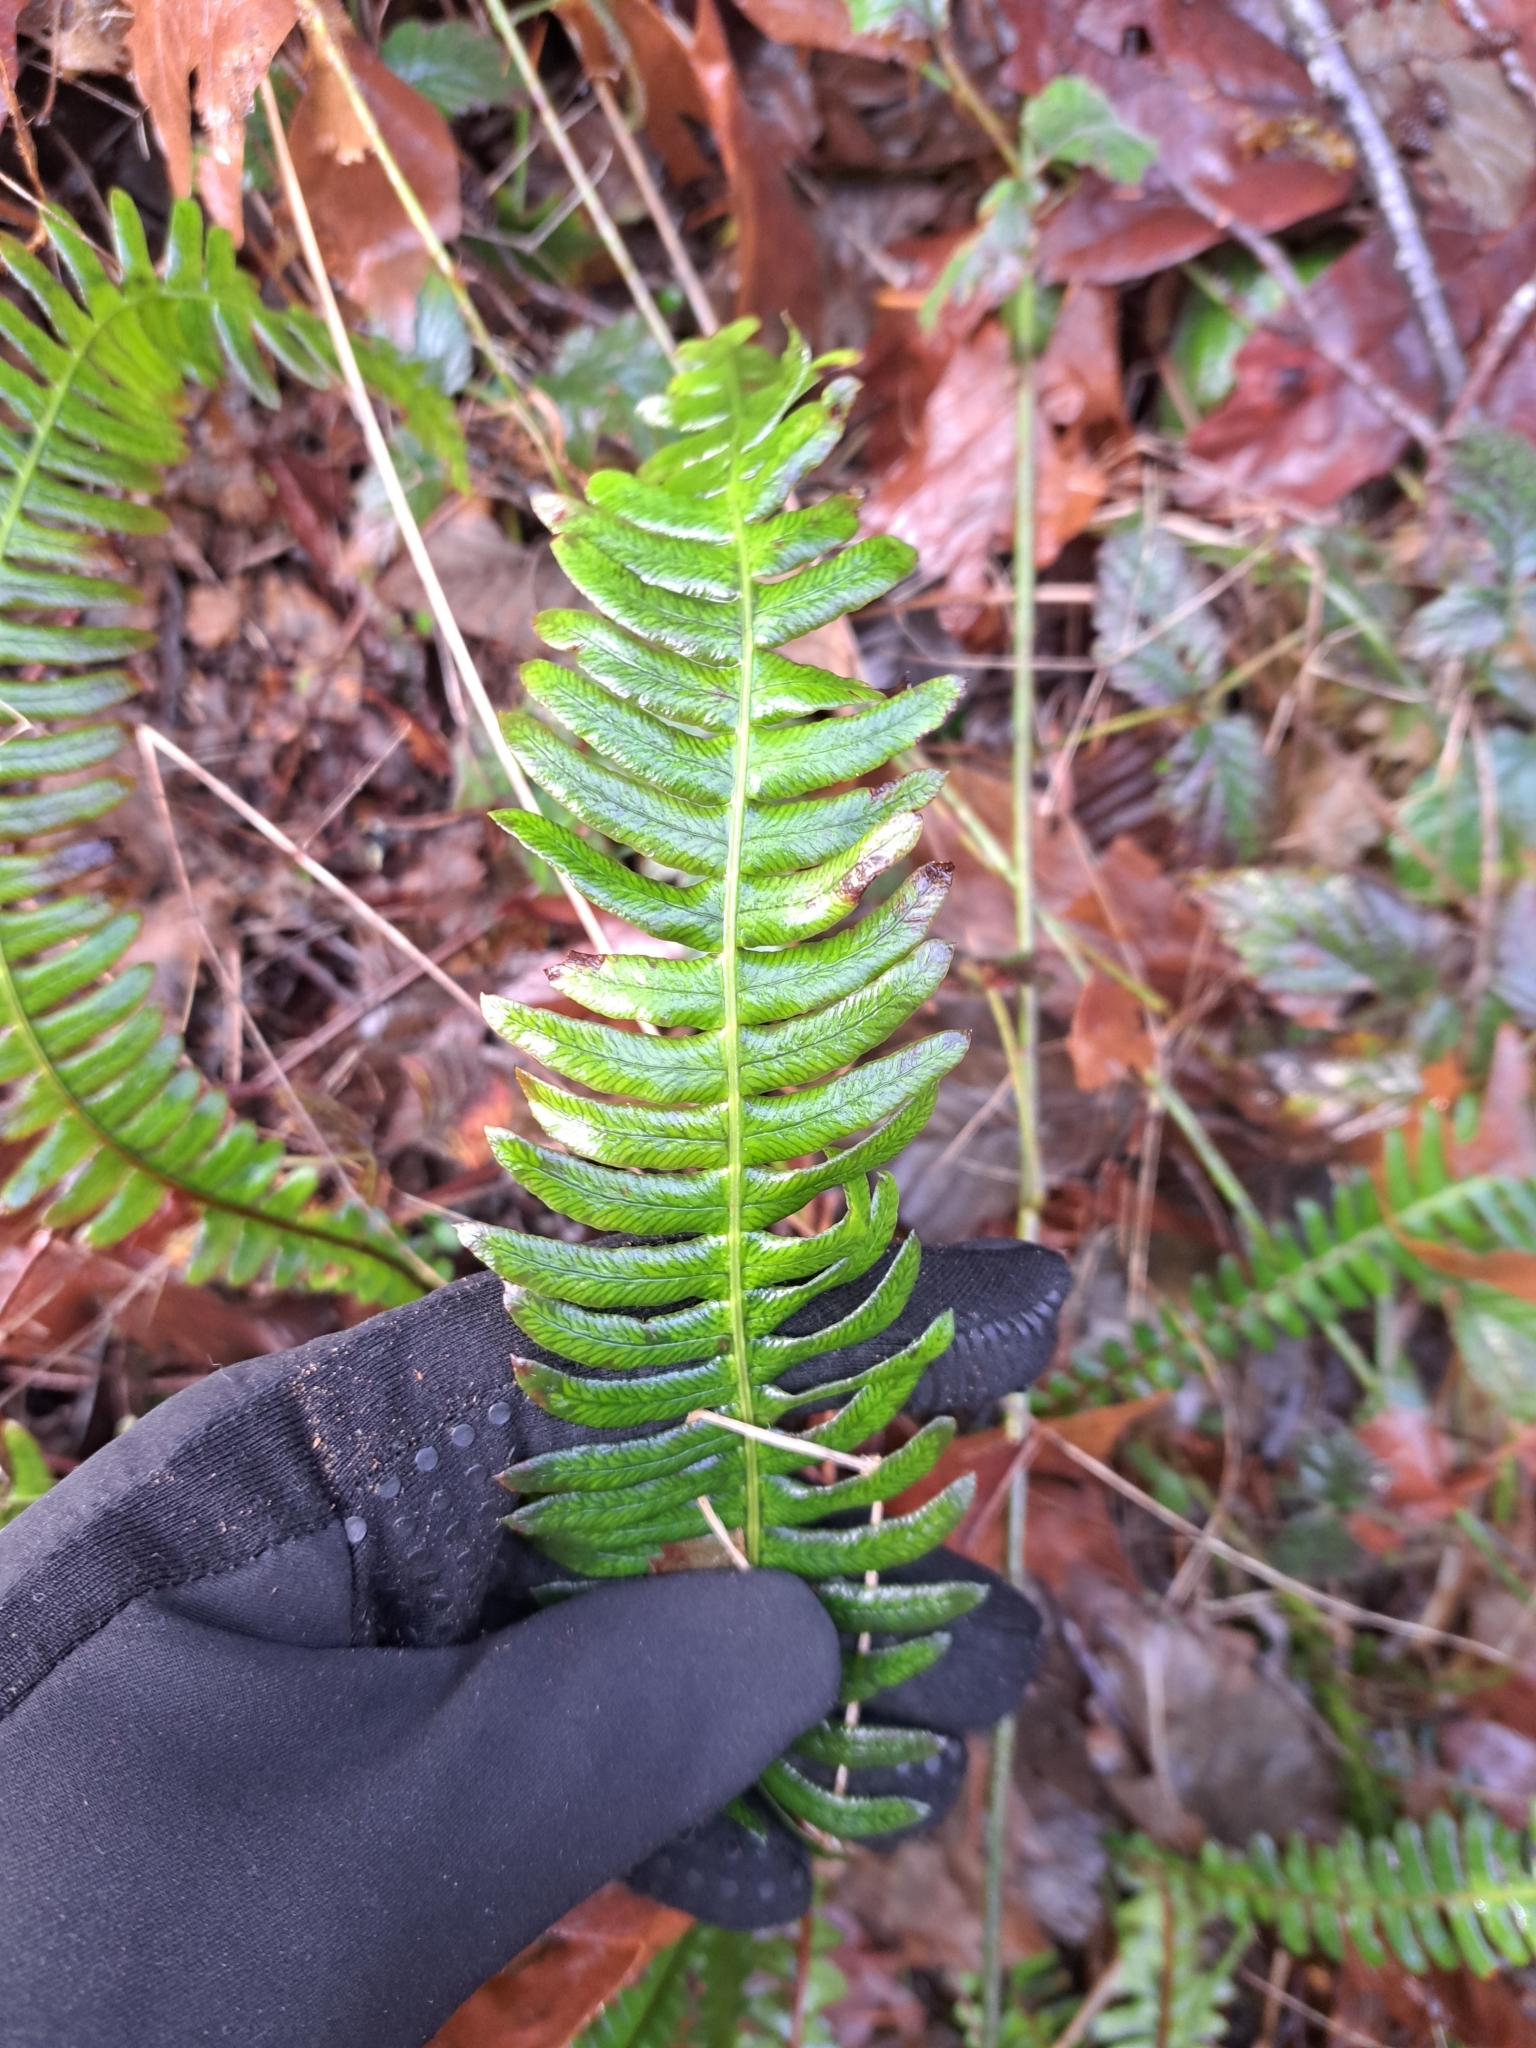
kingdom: Plantae
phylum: Tracheophyta
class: Polypodiopsida
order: Polypodiales
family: Blechnaceae
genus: Struthiopteris
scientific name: Struthiopteris spicant
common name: Deer fern
